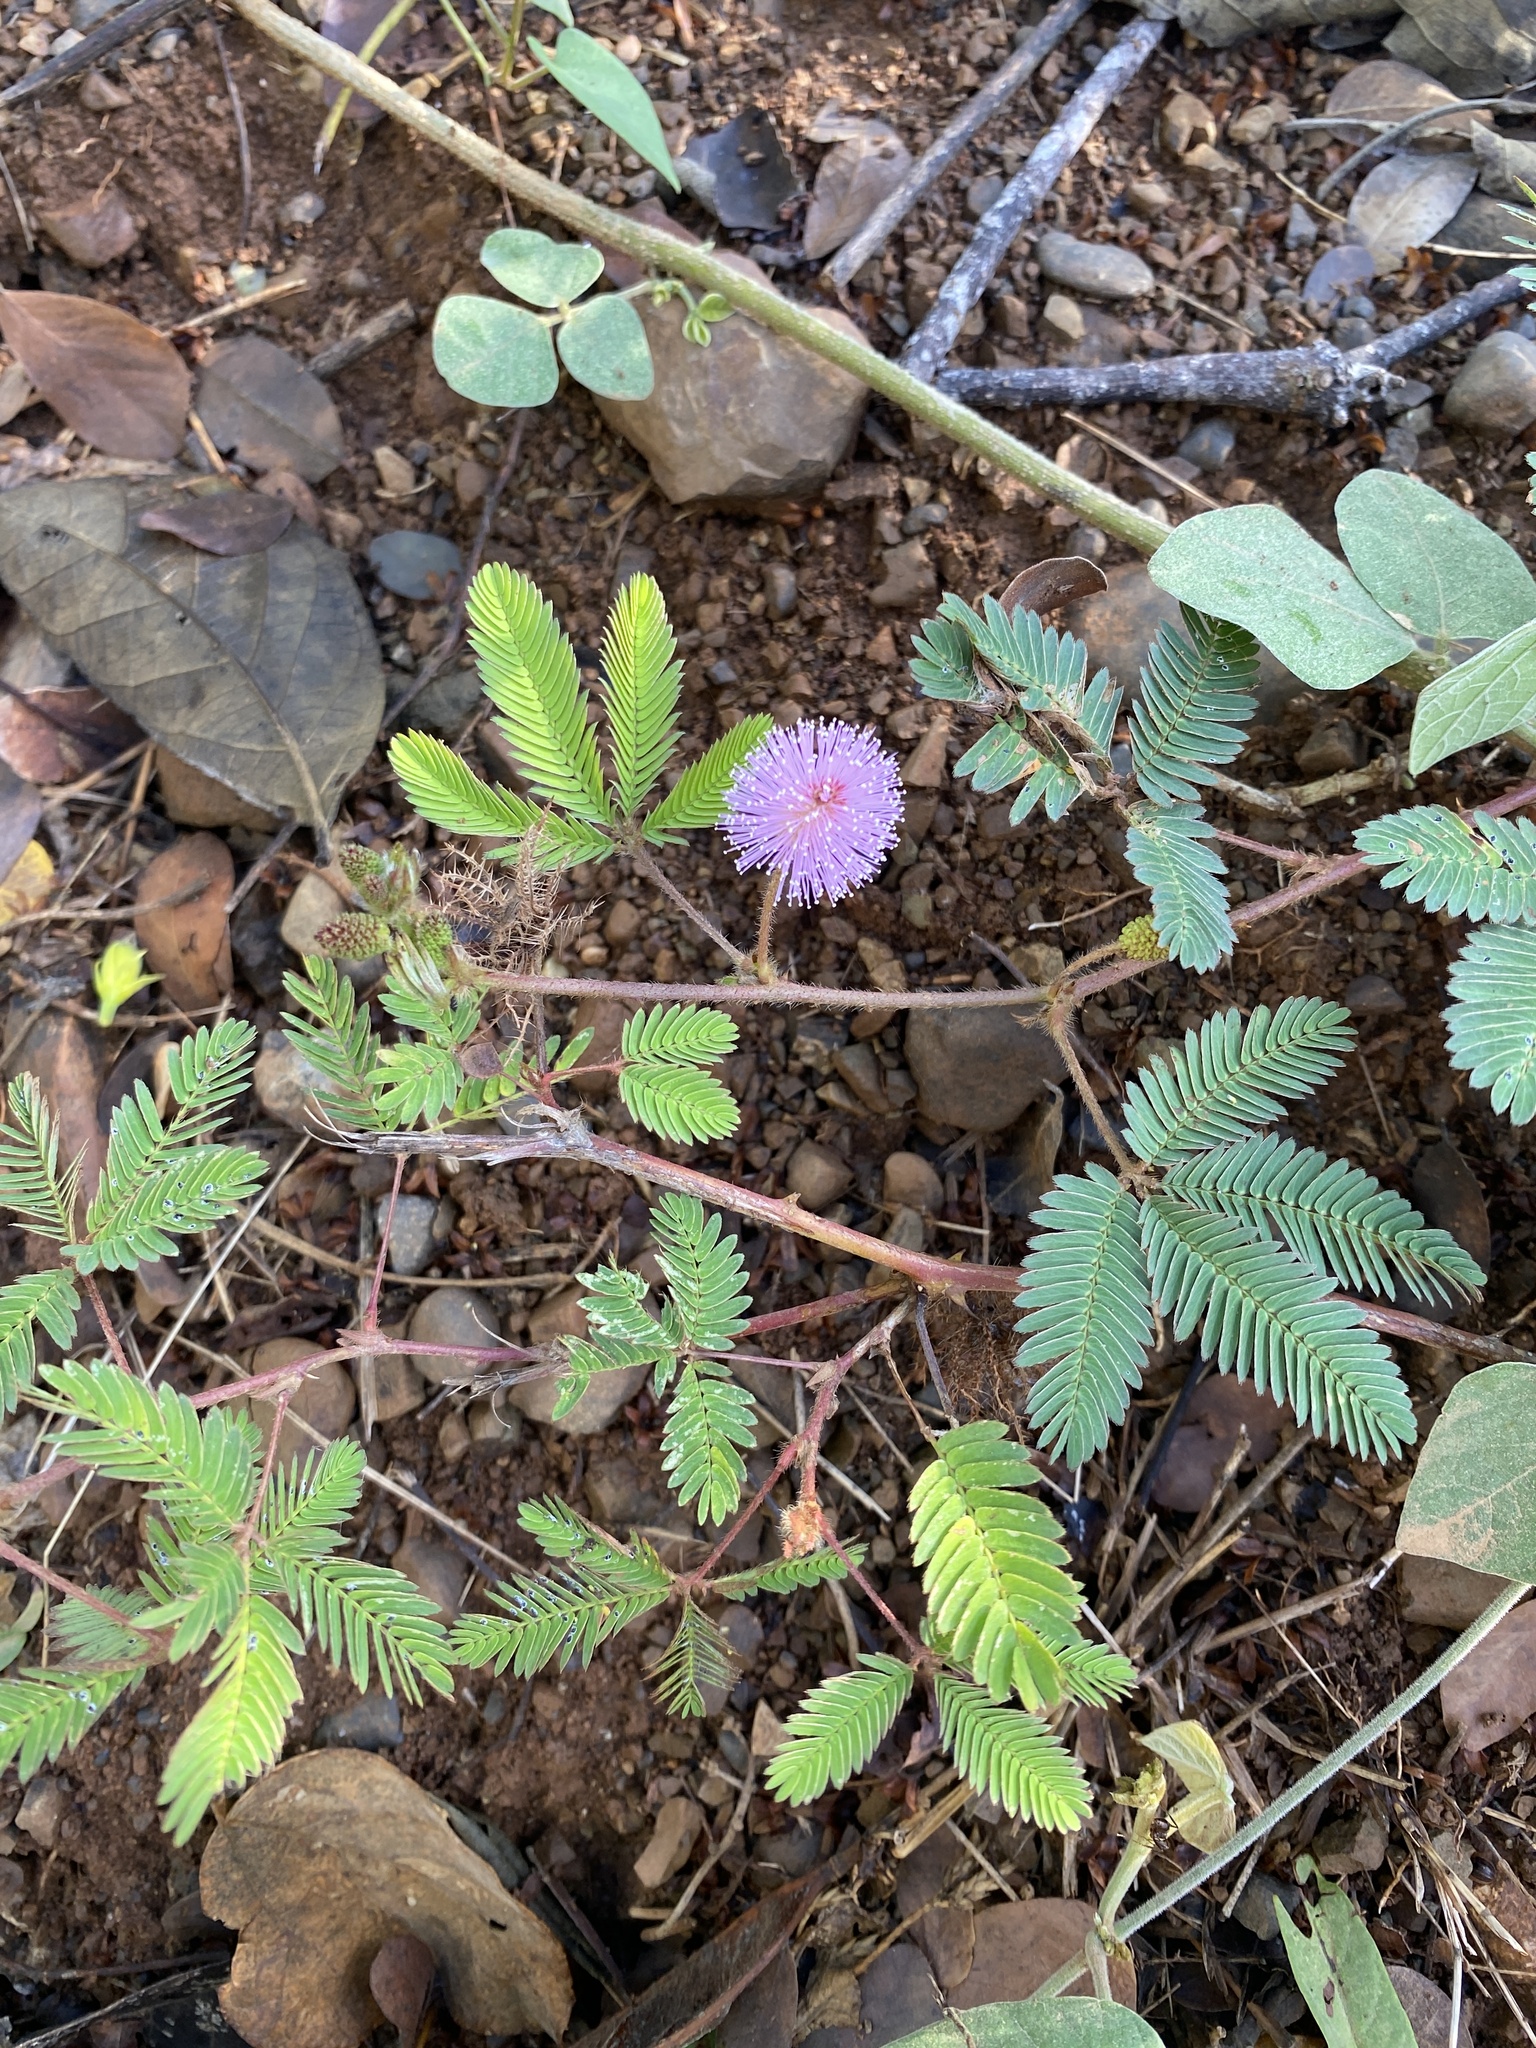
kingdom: Plantae
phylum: Tracheophyta
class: Magnoliopsida
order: Fabales
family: Fabaceae
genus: Mimosa
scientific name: Mimosa pudica
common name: Sensitive plant
